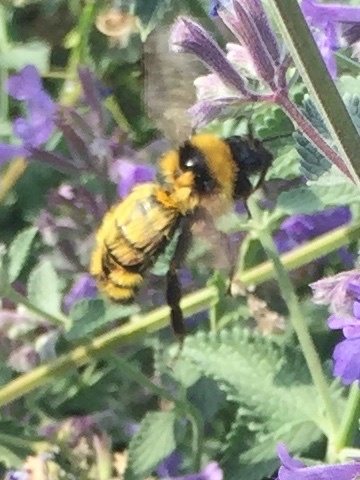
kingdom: Animalia
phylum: Arthropoda
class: Insecta
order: Hymenoptera
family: Apidae
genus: Bombus
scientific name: Bombus fervidus
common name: Yellow bumble bee
